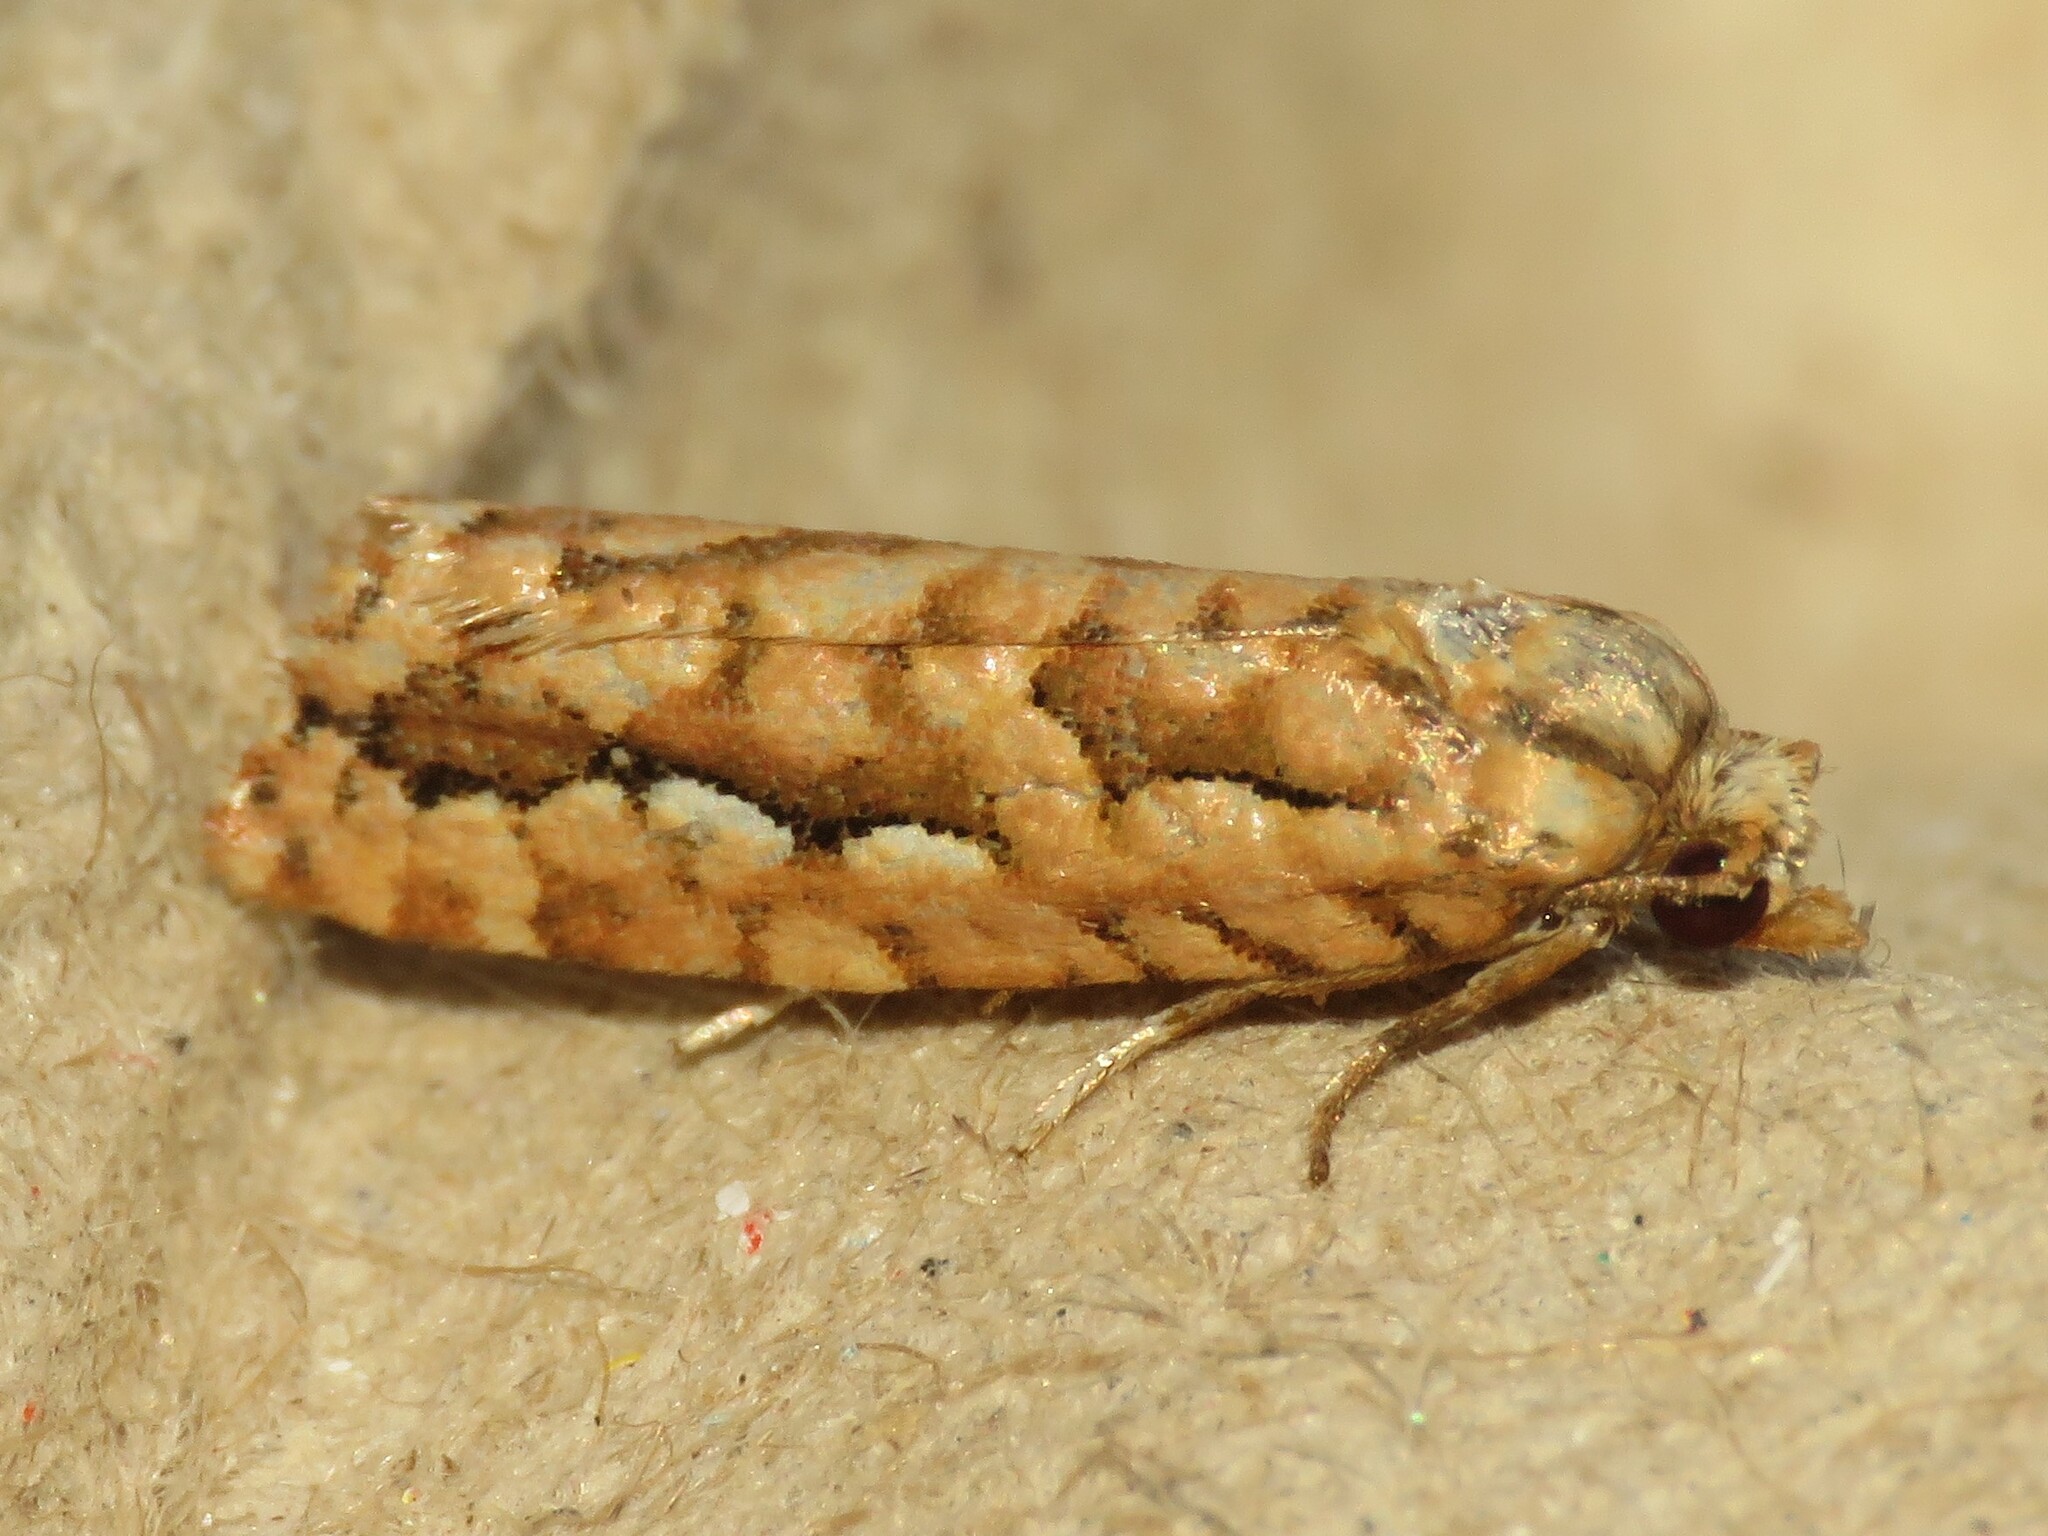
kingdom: Animalia
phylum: Arthropoda
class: Insecta
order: Lepidoptera
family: Tortricidae
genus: Diedra
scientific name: Diedra cockerellana
